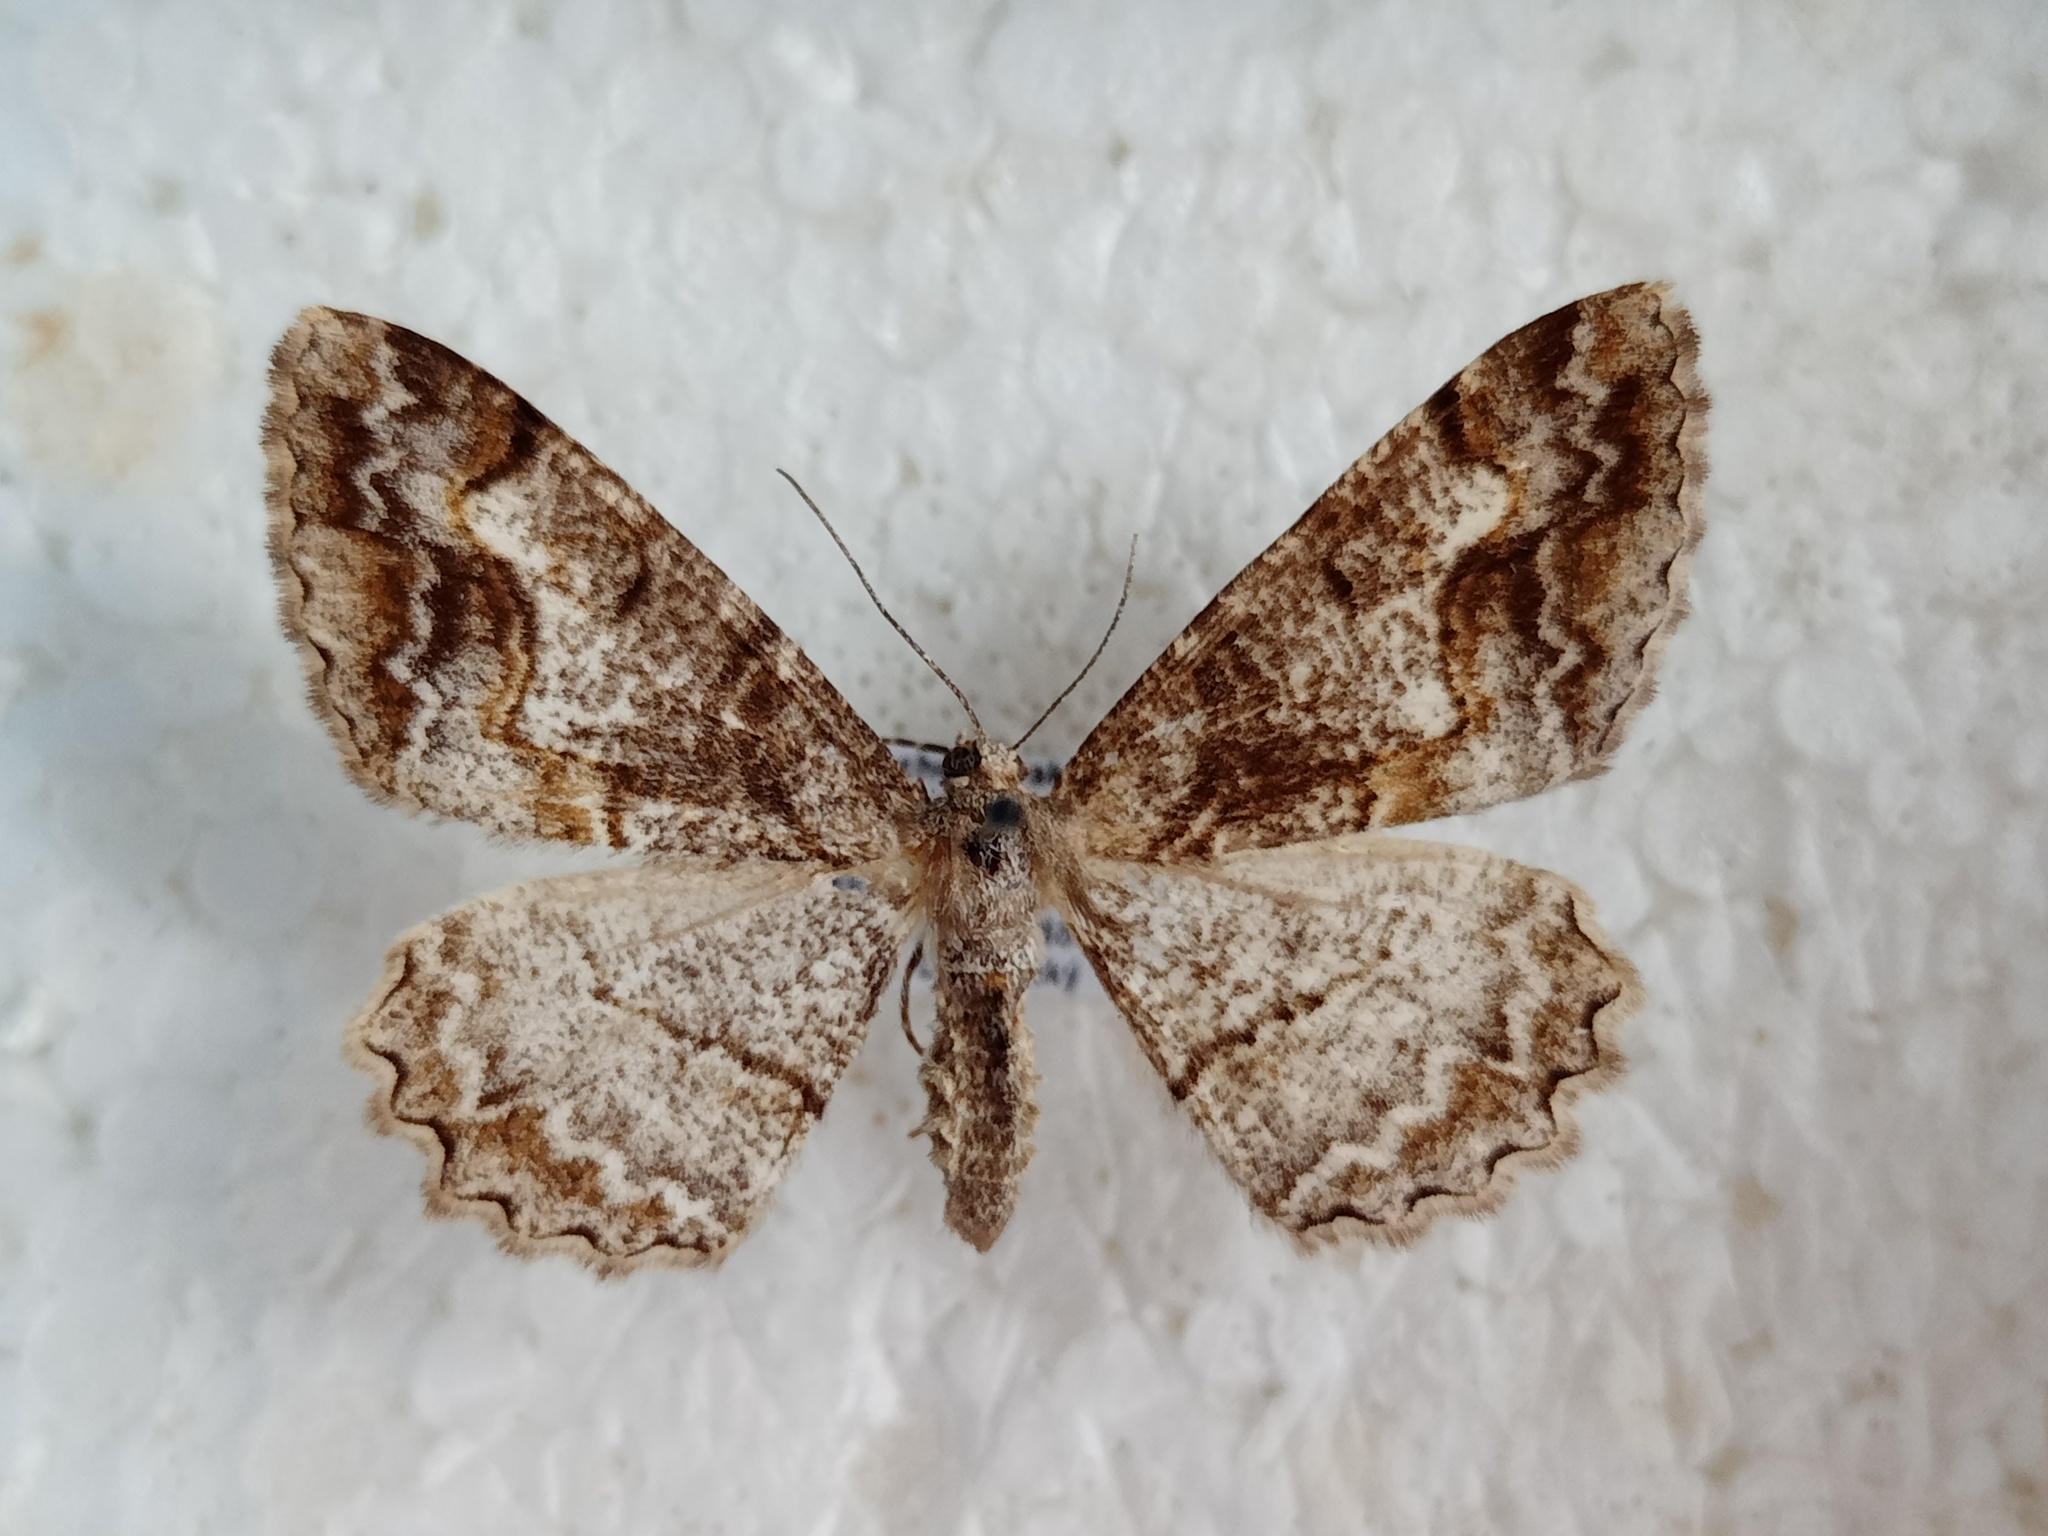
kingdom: Animalia
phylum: Arthropoda
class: Insecta
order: Lepidoptera
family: Geometridae
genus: Alcis
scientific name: Alcis repandata
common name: Mottled beauty
